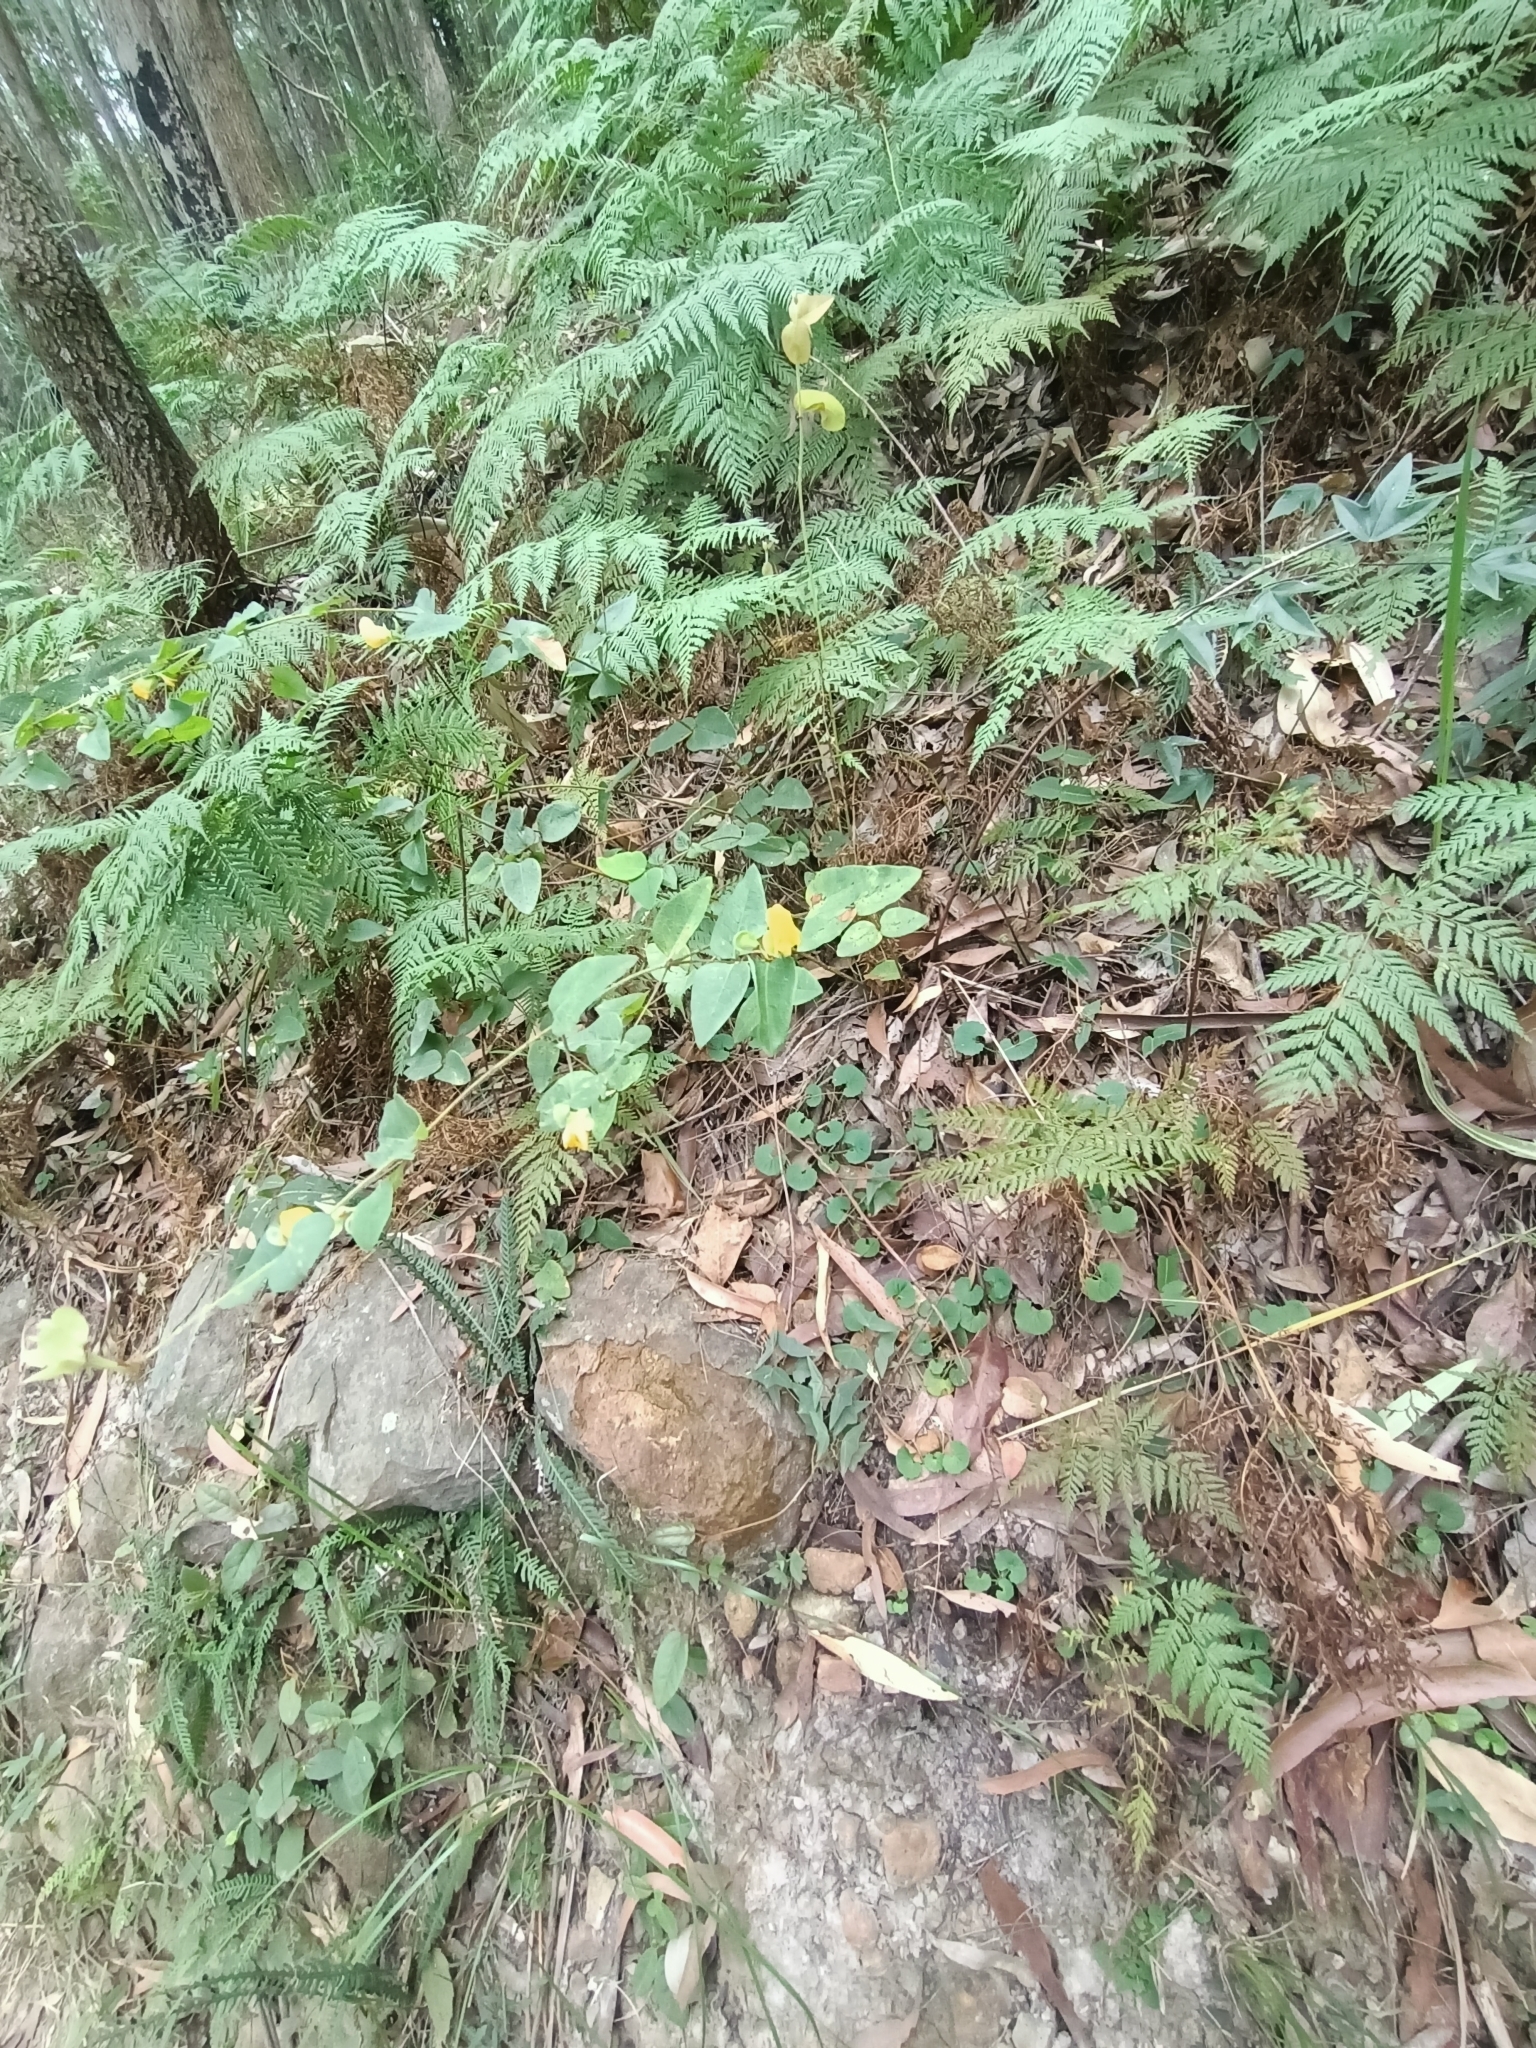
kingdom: Plantae
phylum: Tracheophyta
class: Magnoliopsida
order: Fabales
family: Fabaceae
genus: Platylobium
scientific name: Platylobium formosum
